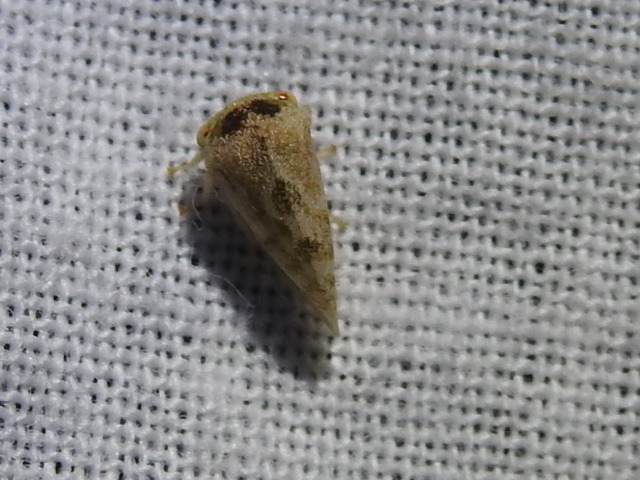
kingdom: Animalia
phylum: Arthropoda
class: Insecta
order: Hemiptera
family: Membracidae
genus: Cyrtolobus
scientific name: Cyrtolobus maculifrontis
